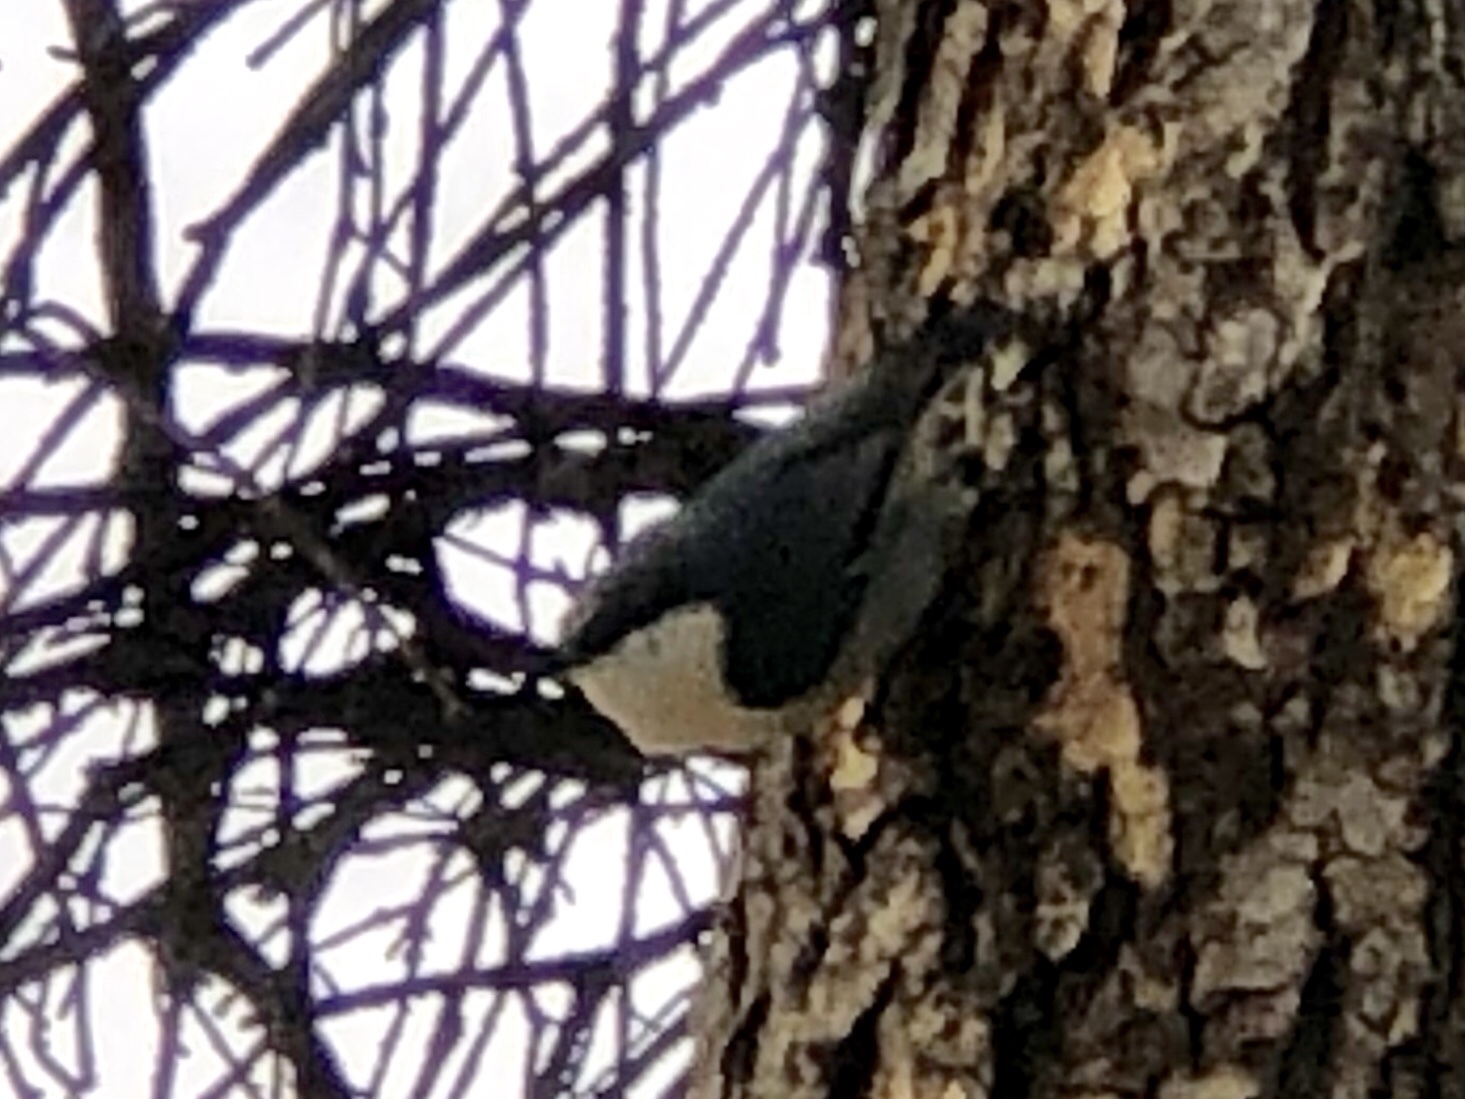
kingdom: Animalia
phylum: Chordata
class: Aves
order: Passeriformes
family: Sittidae
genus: Sitta
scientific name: Sitta pygmaea
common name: Pygmy nuthatch
